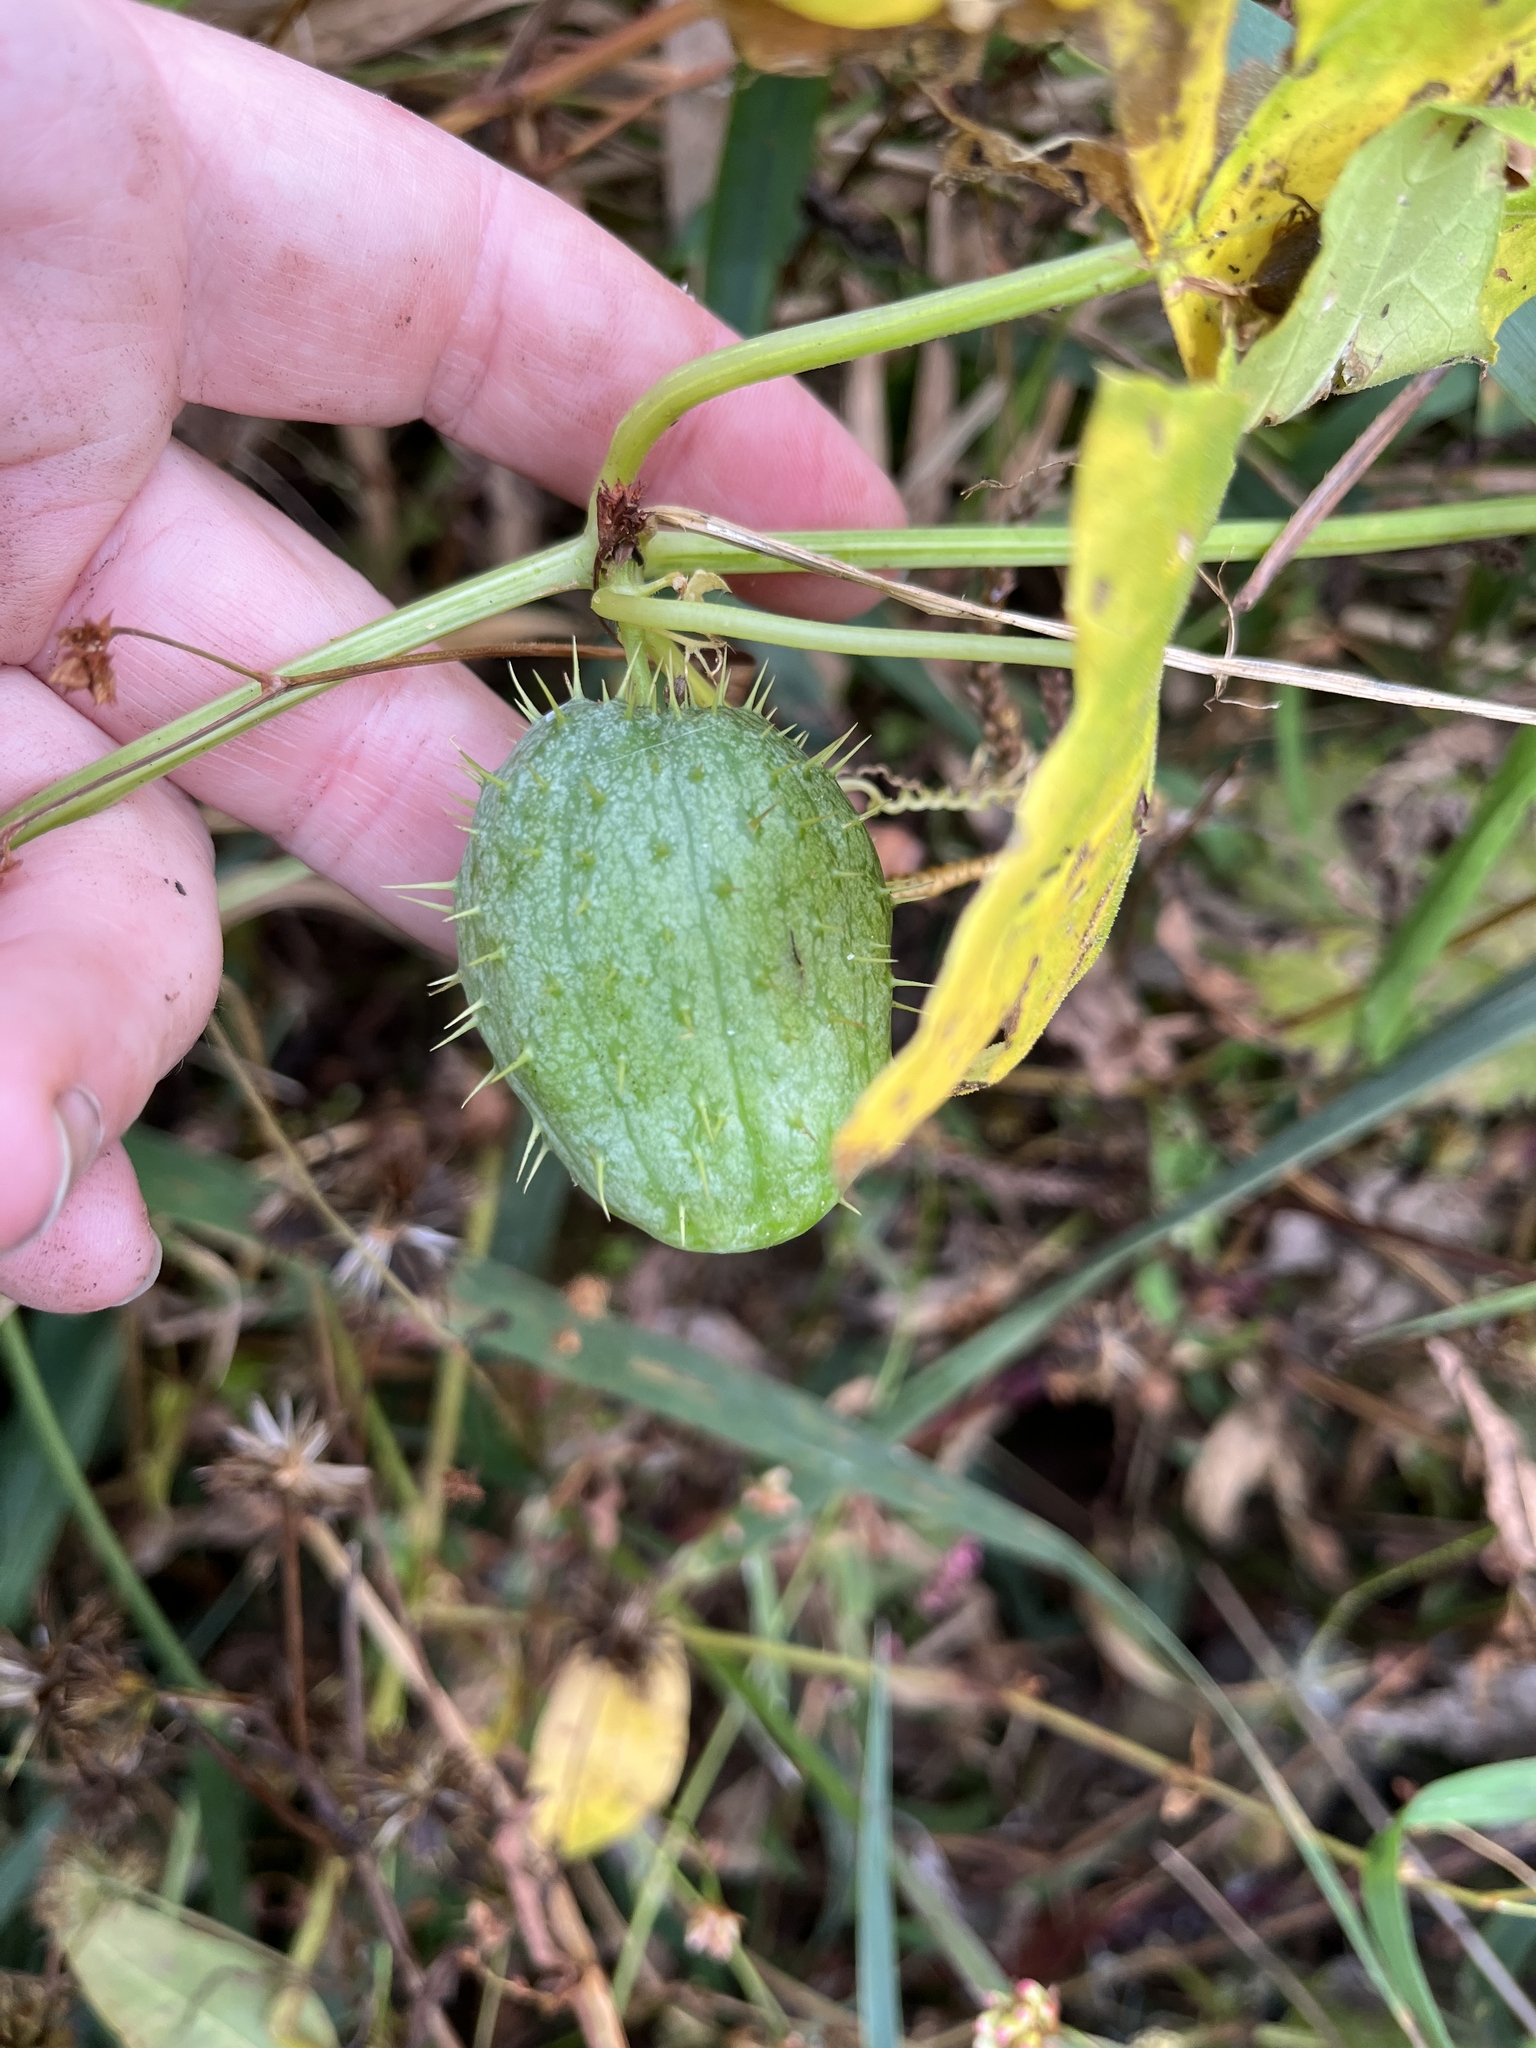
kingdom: Plantae
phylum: Tracheophyta
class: Magnoliopsida
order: Cucurbitales
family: Cucurbitaceae
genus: Echinocystis
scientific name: Echinocystis lobata
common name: Wild cucumber
